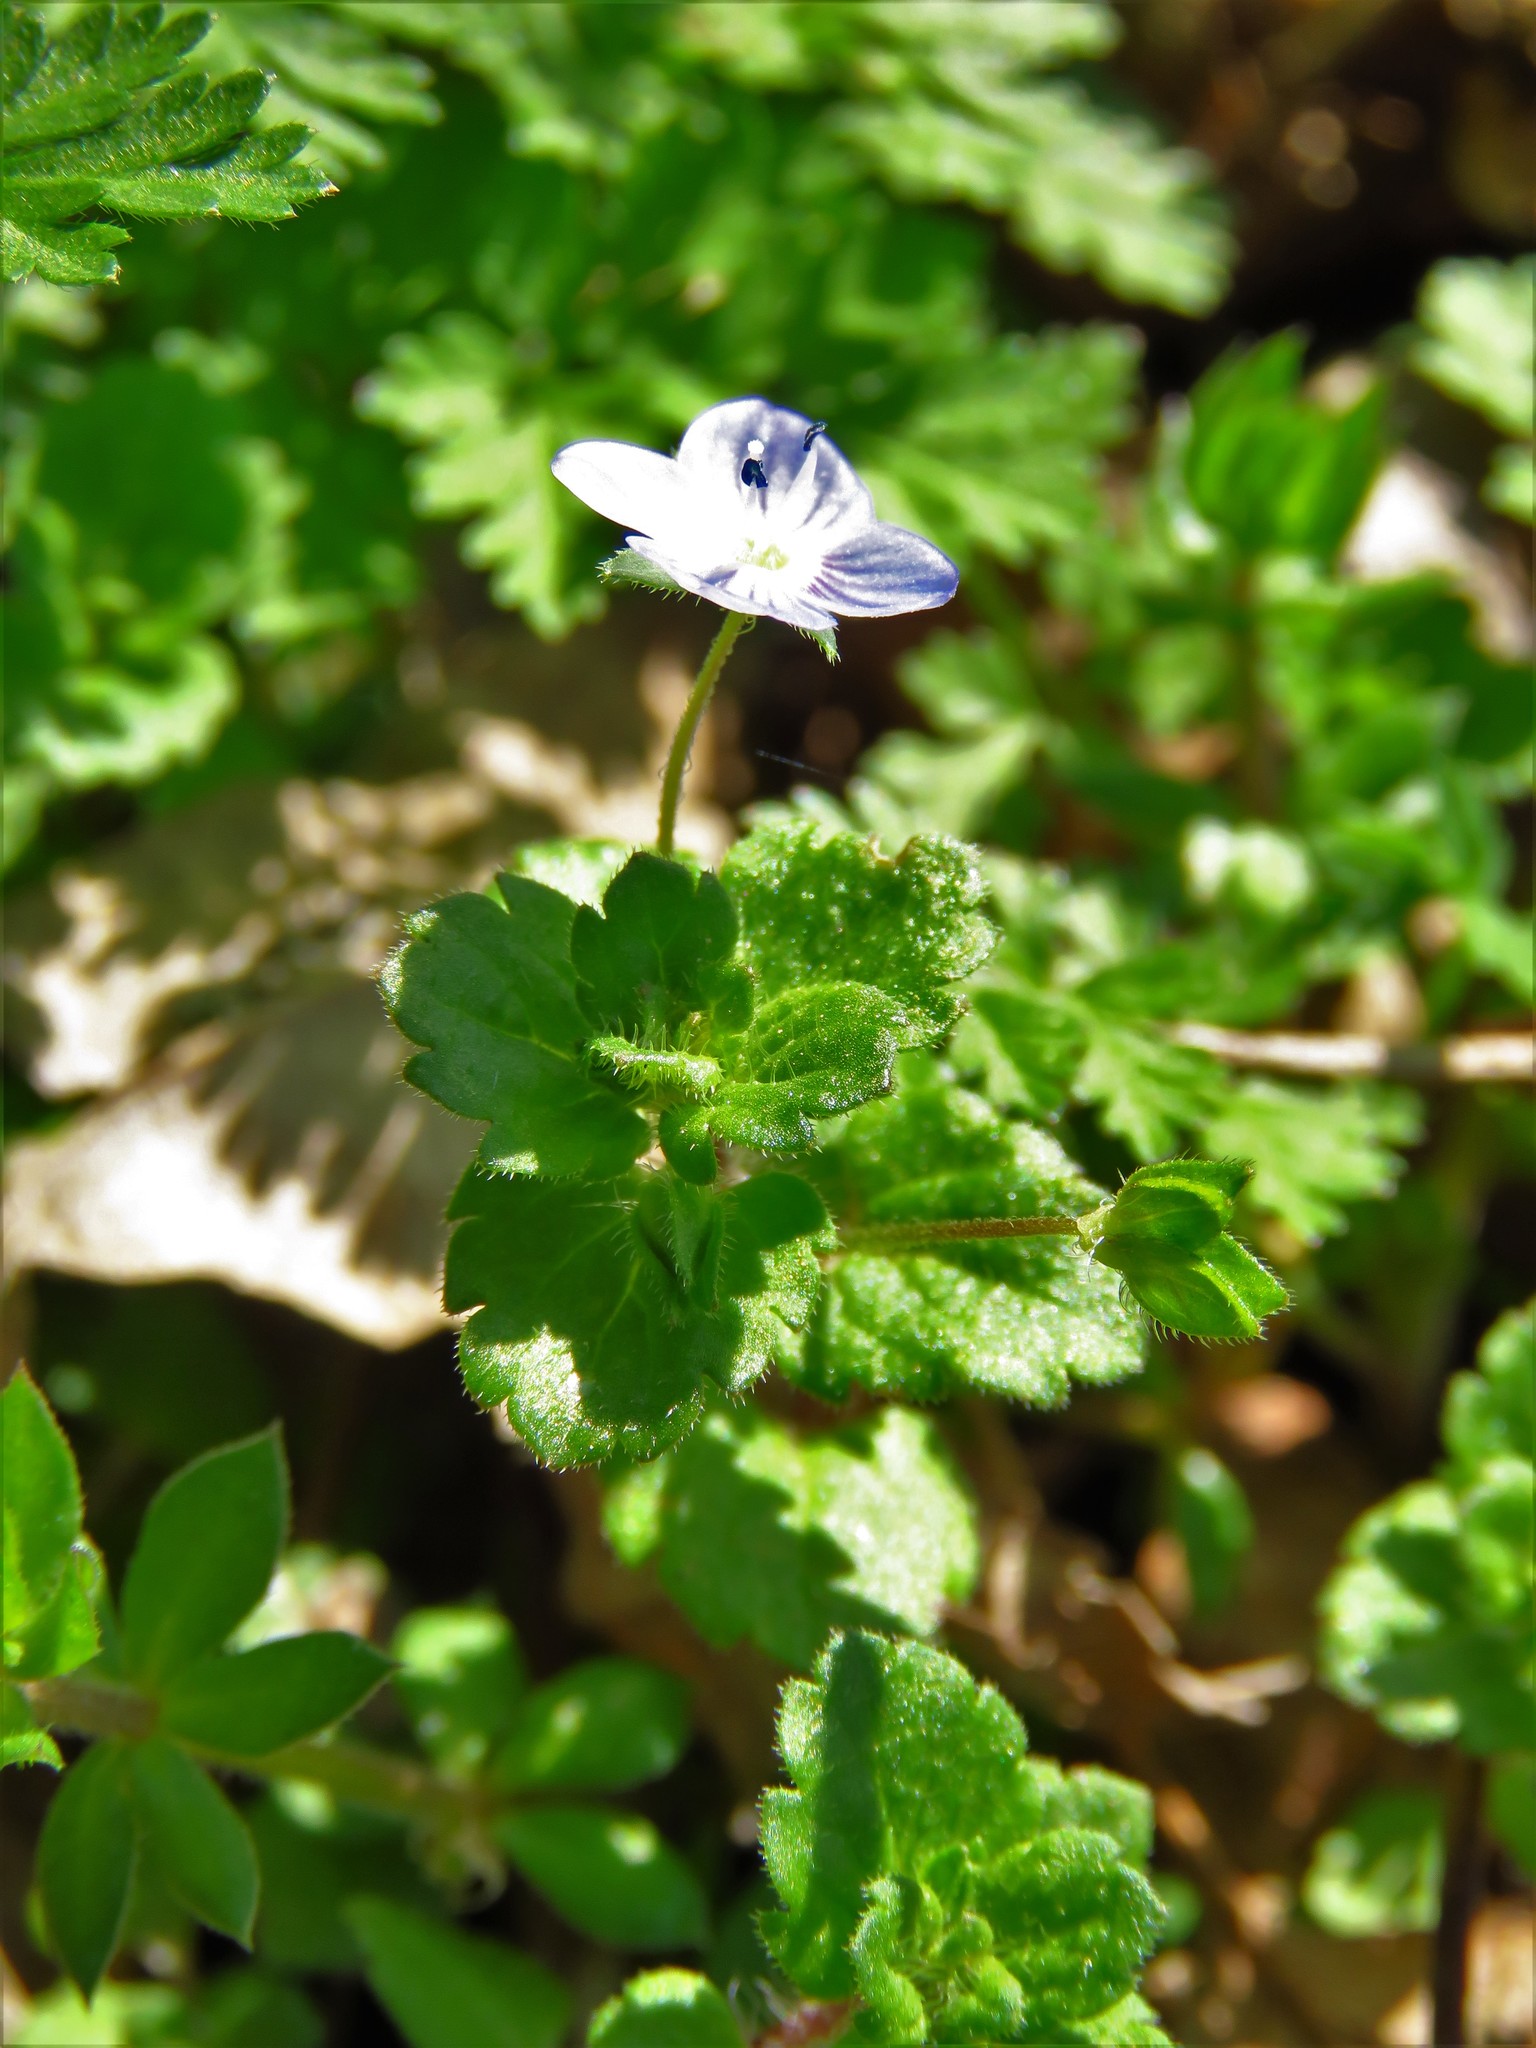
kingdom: Plantae
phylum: Tracheophyta
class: Magnoliopsida
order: Lamiales
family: Plantaginaceae
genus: Veronica
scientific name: Veronica persica
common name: Common field-speedwell
